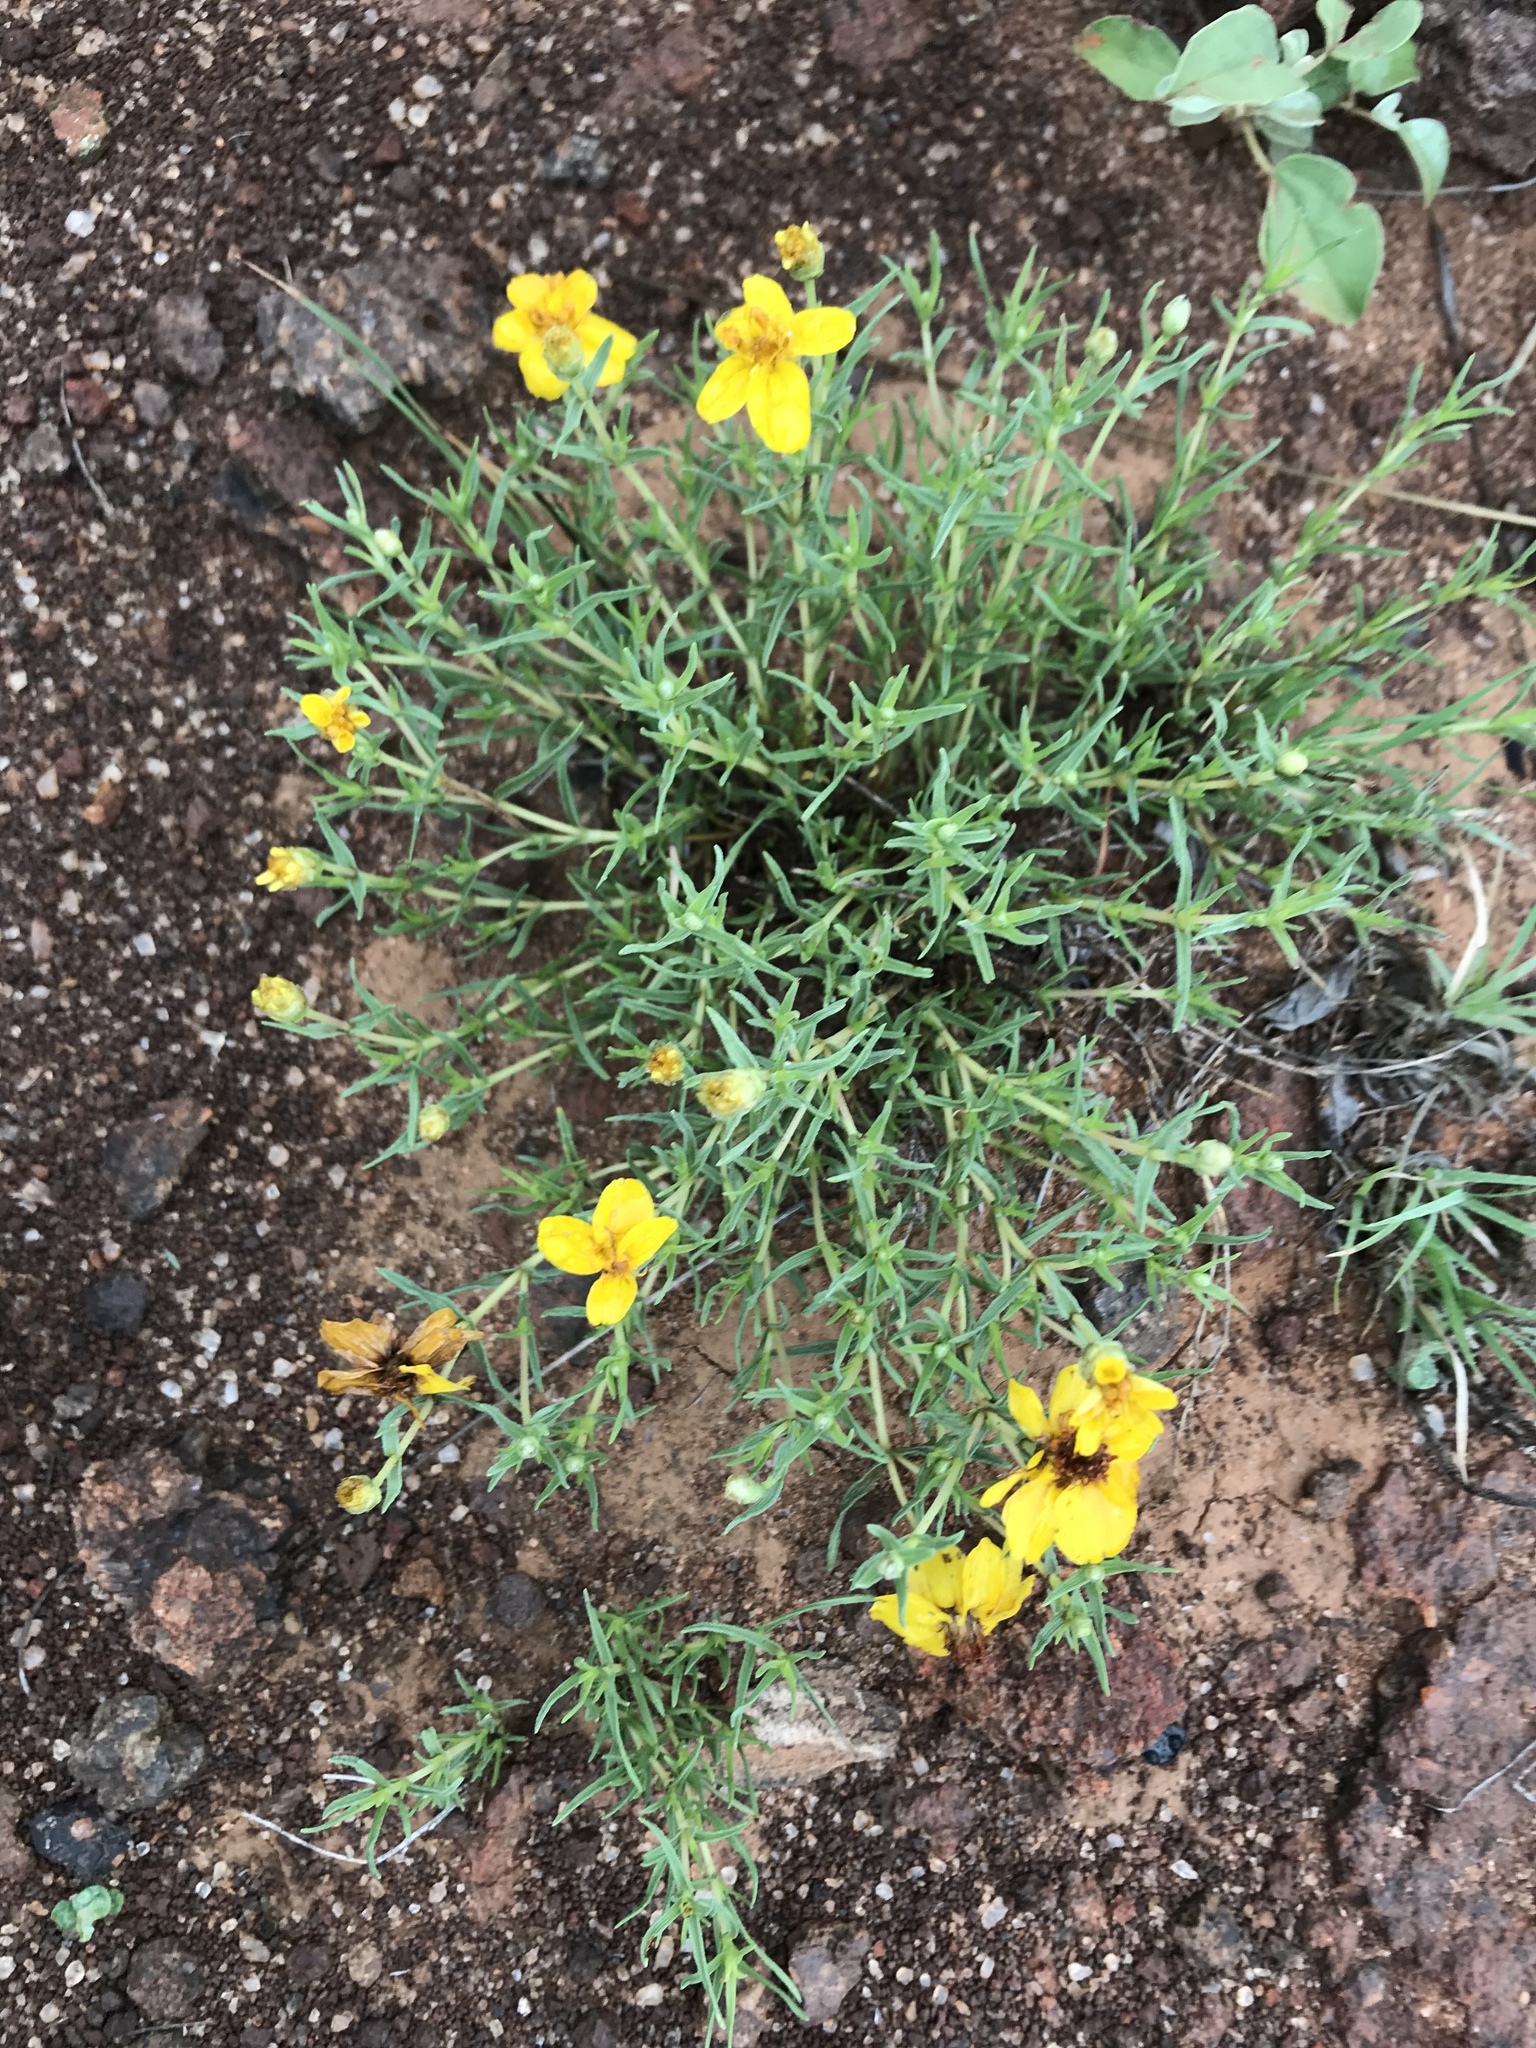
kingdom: Plantae
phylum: Tracheophyta
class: Magnoliopsida
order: Asterales
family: Asteraceae
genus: Zinnia
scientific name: Zinnia grandiflora
